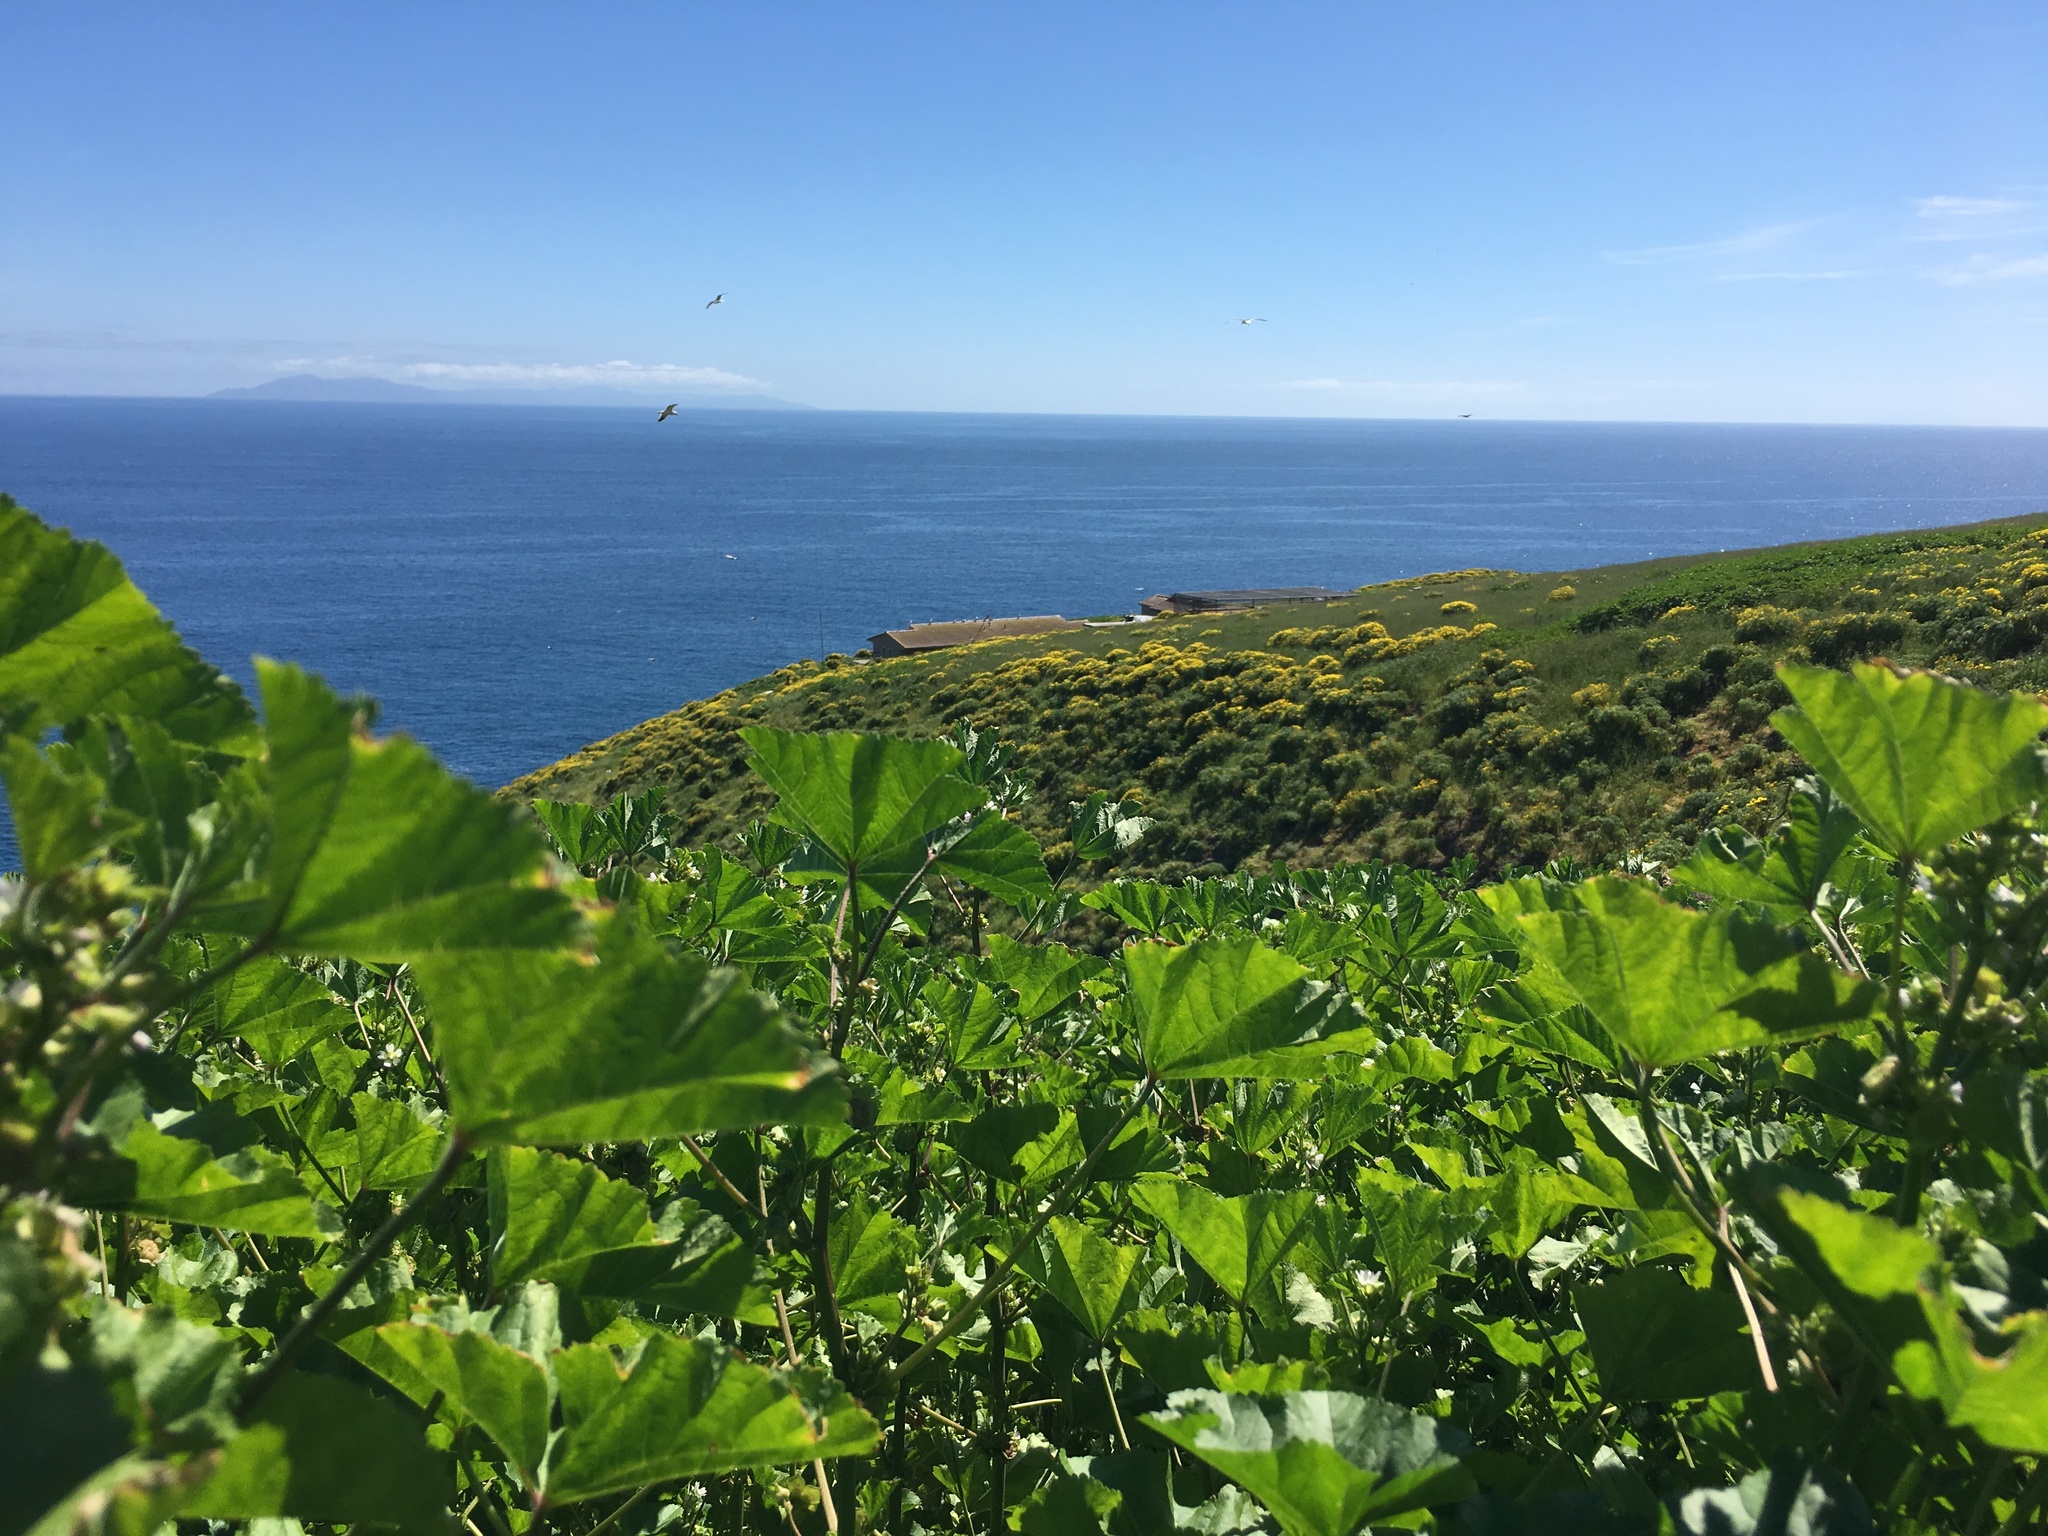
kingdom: Plantae
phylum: Tracheophyta
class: Magnoliopsida
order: Malvales
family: Malvaceae
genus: Malva
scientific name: Malva parviflora
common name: Least mallow
